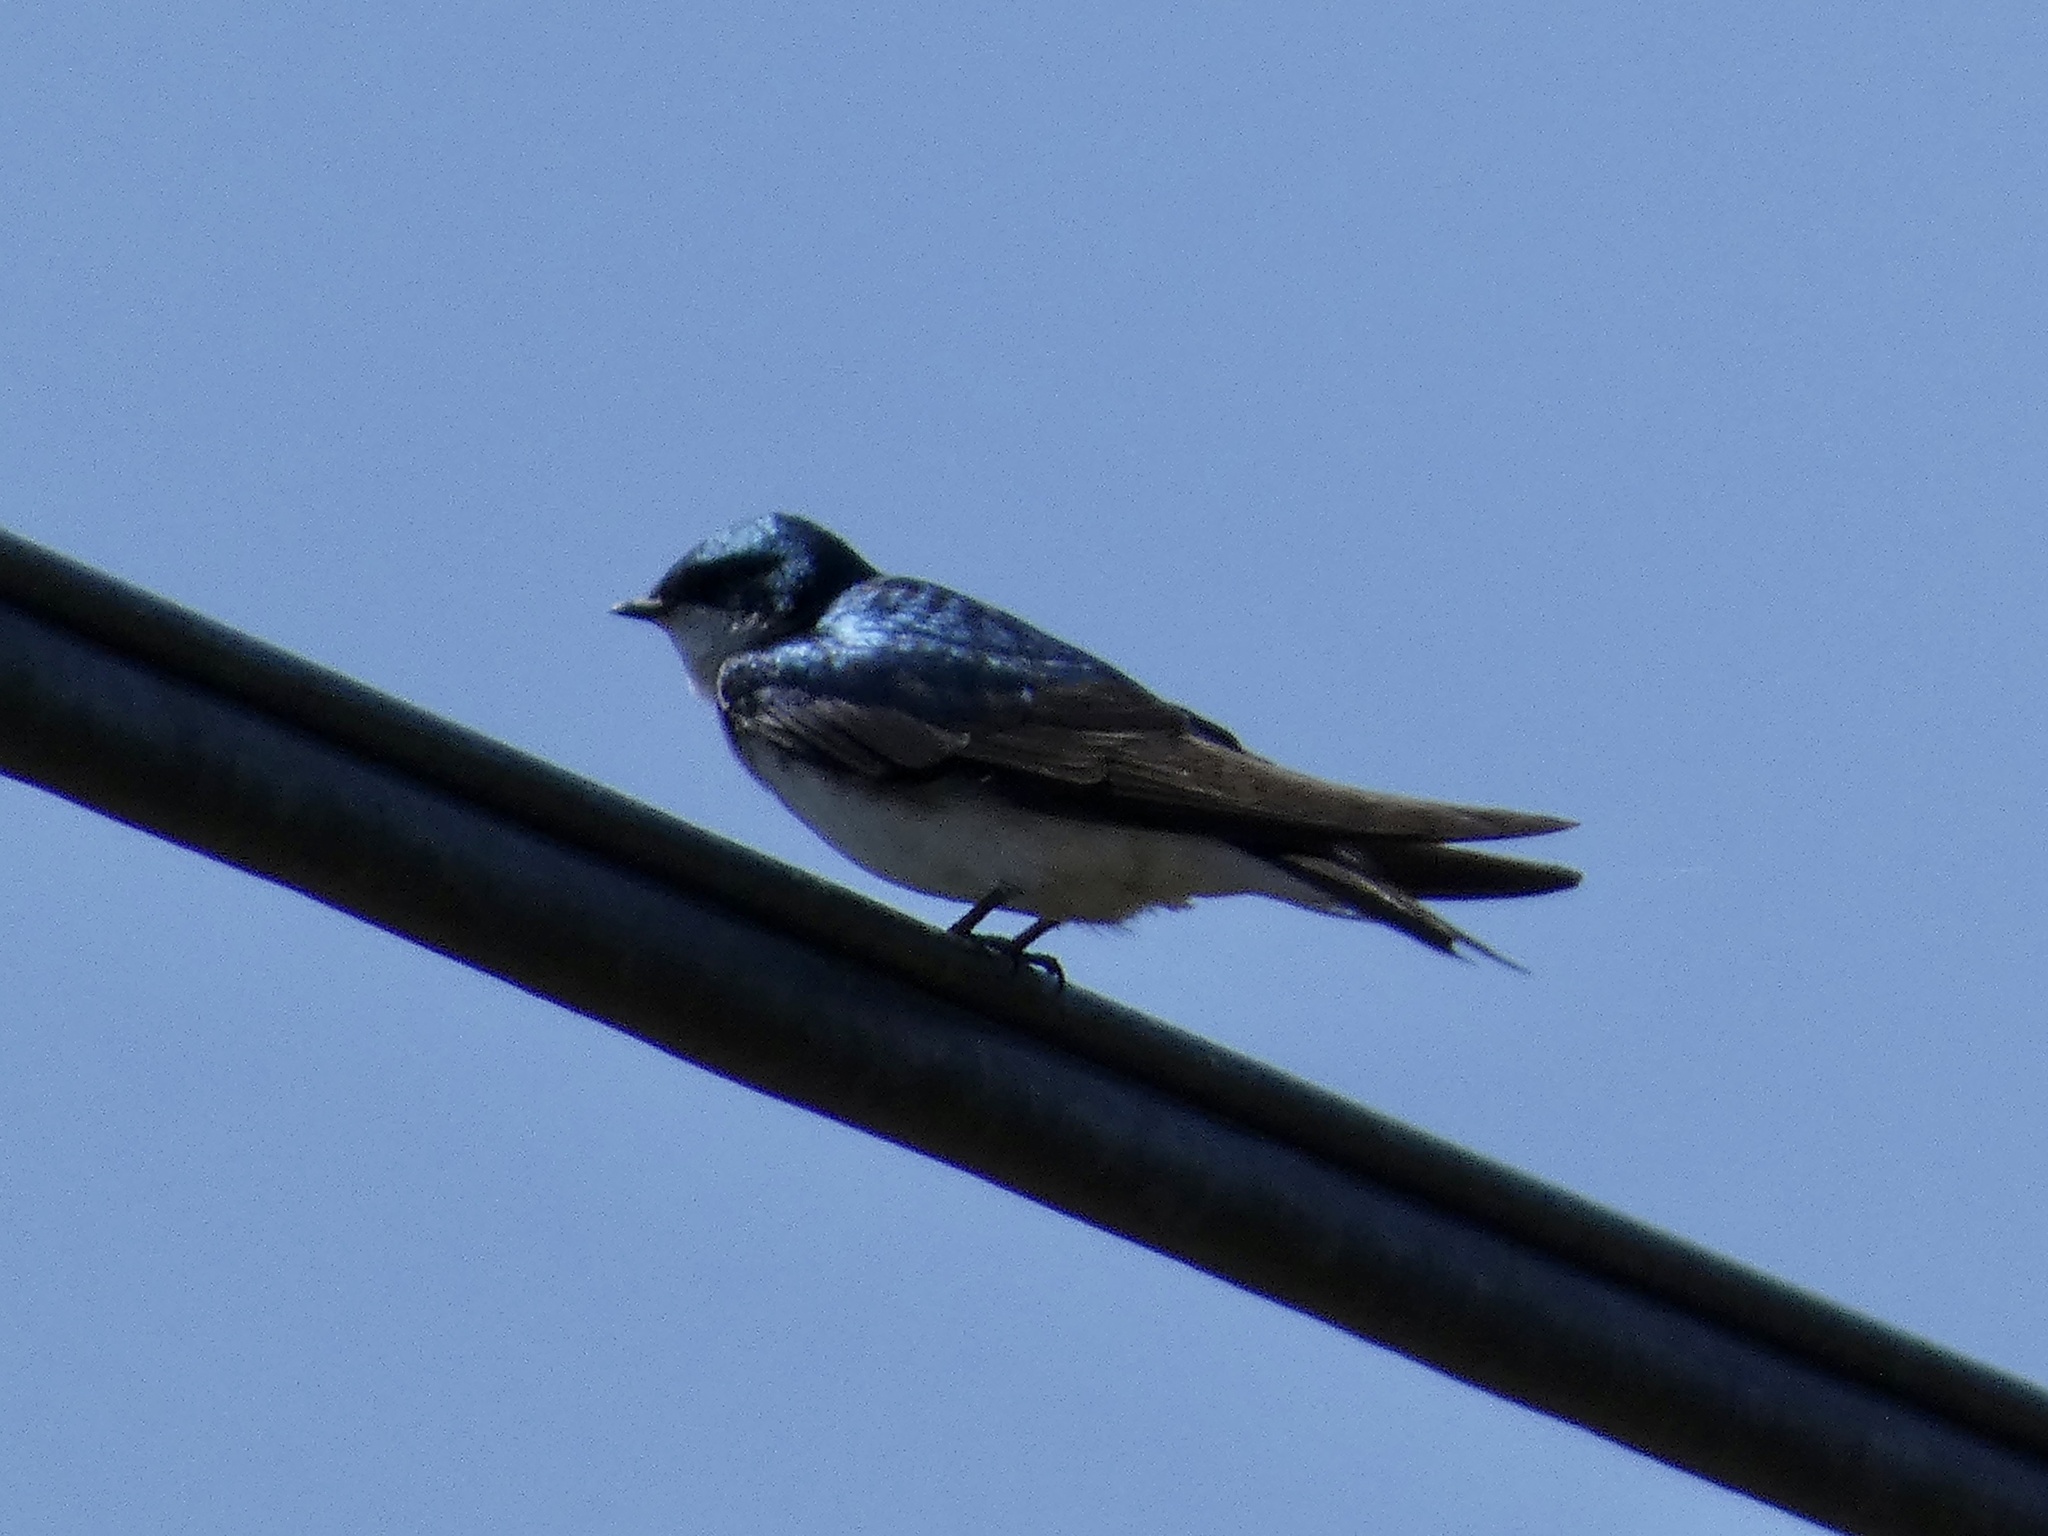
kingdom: Animalia
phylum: Chordata
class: Aves
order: Passeriformes
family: Hirundinidae
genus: Tachycineta
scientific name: Tachycineta bicolor
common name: Tree swallow
